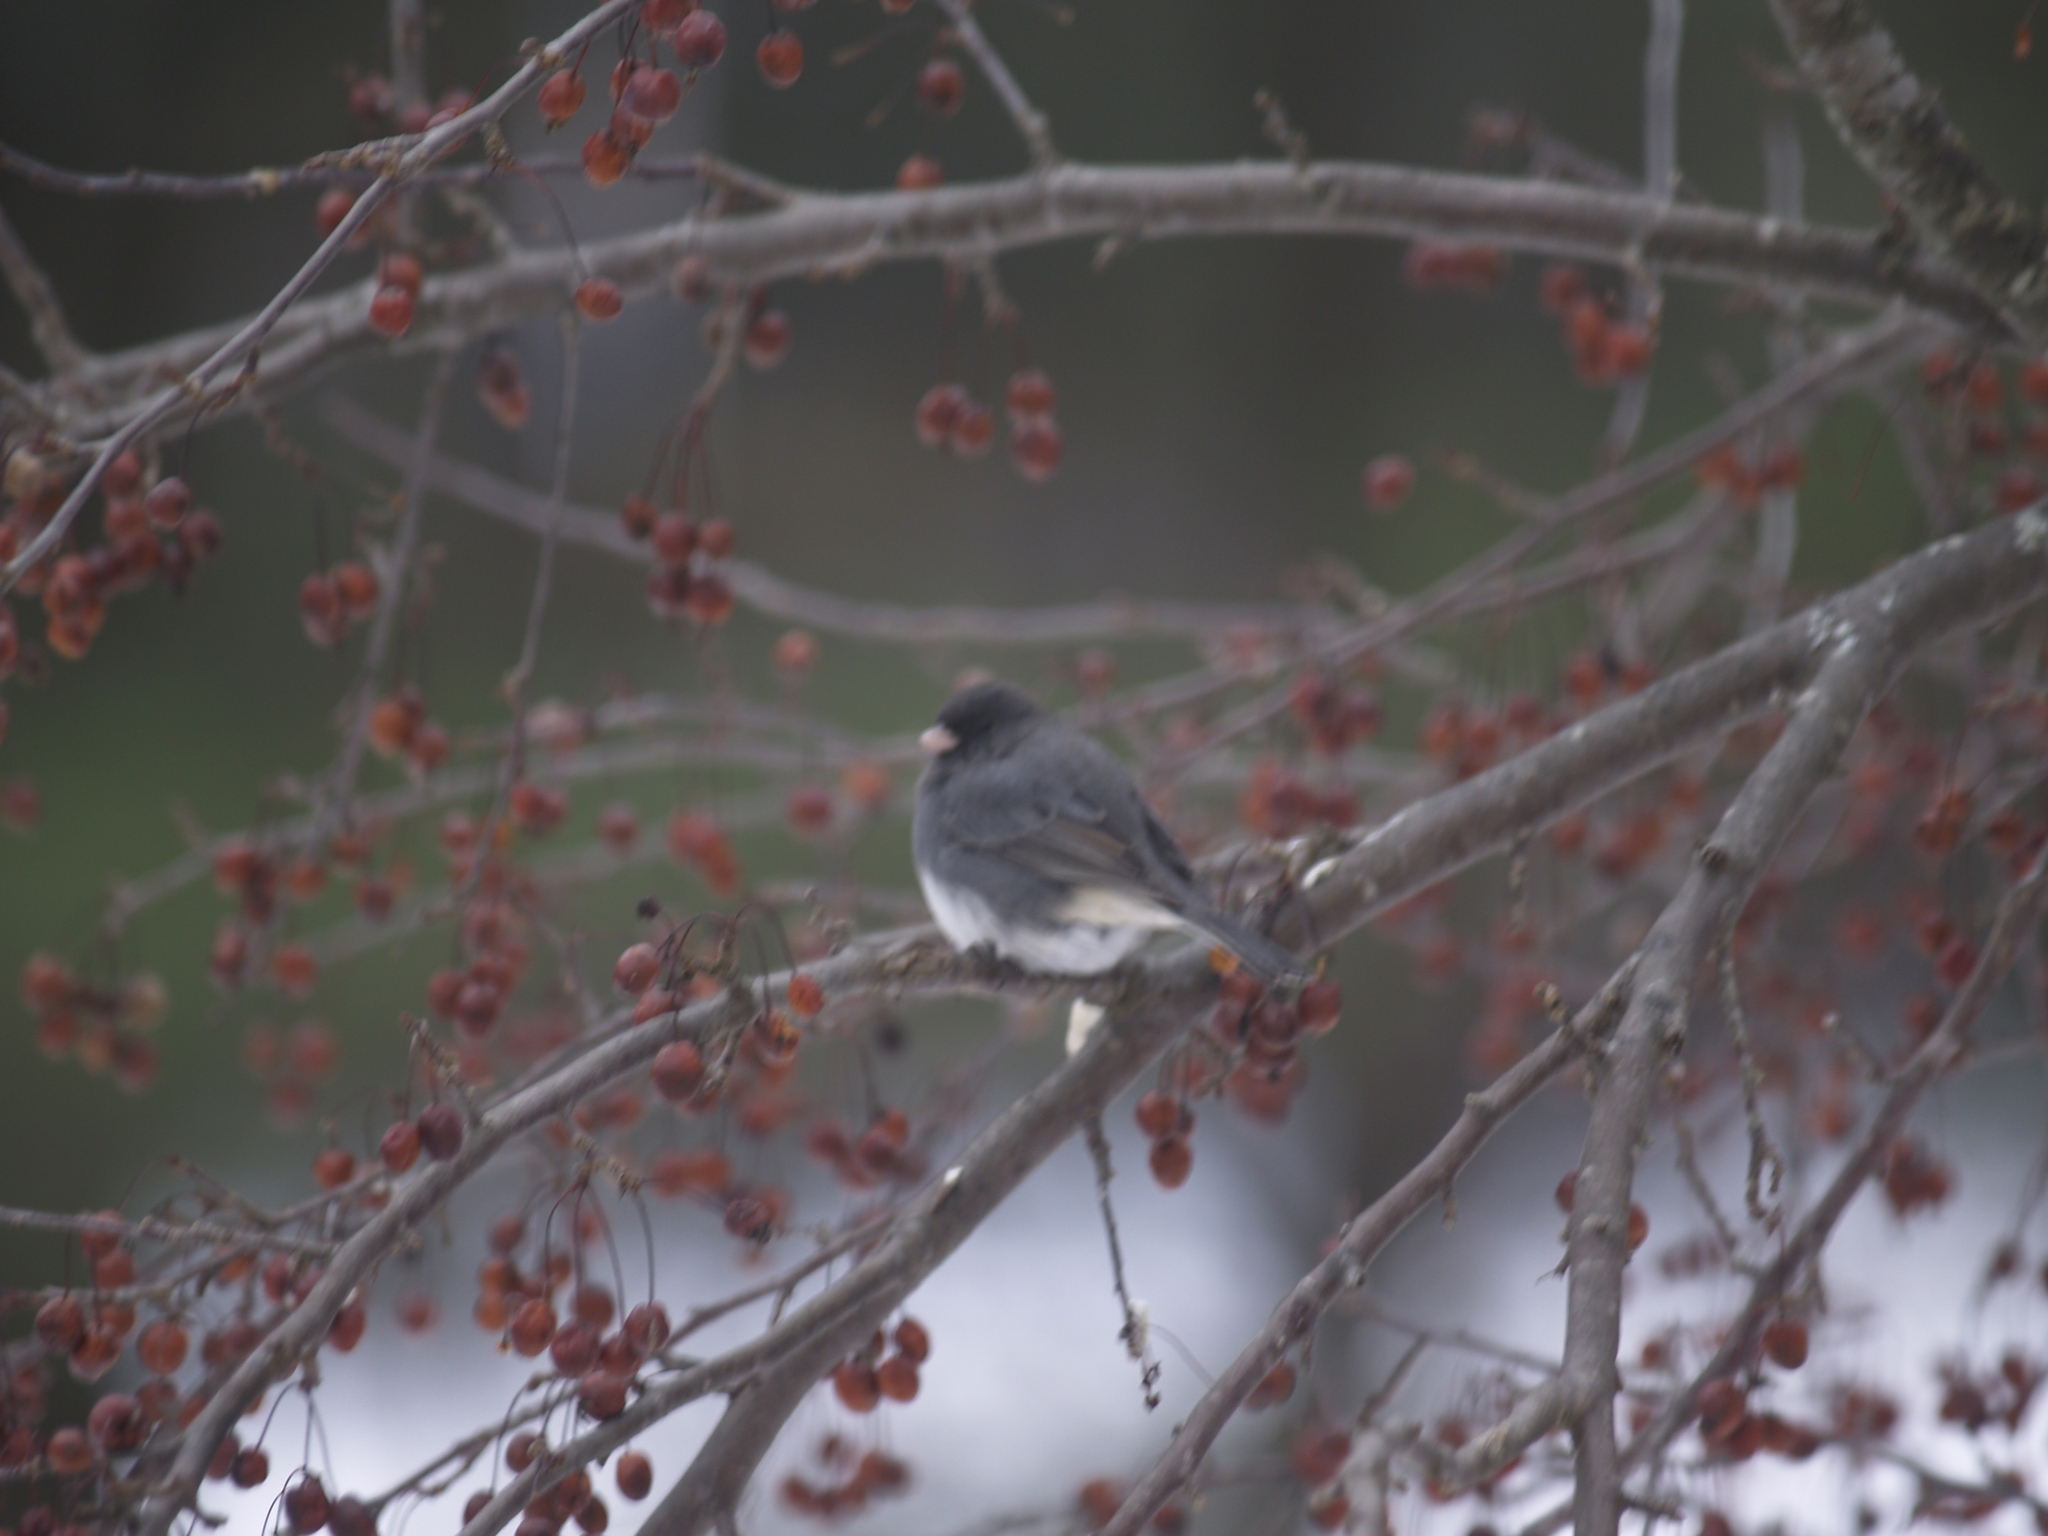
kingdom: Animalia
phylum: Chordata
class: Aves
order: Passeriformes
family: Passerellidae
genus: Junco
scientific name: Junco hyemalis
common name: Dark-eyed junco
